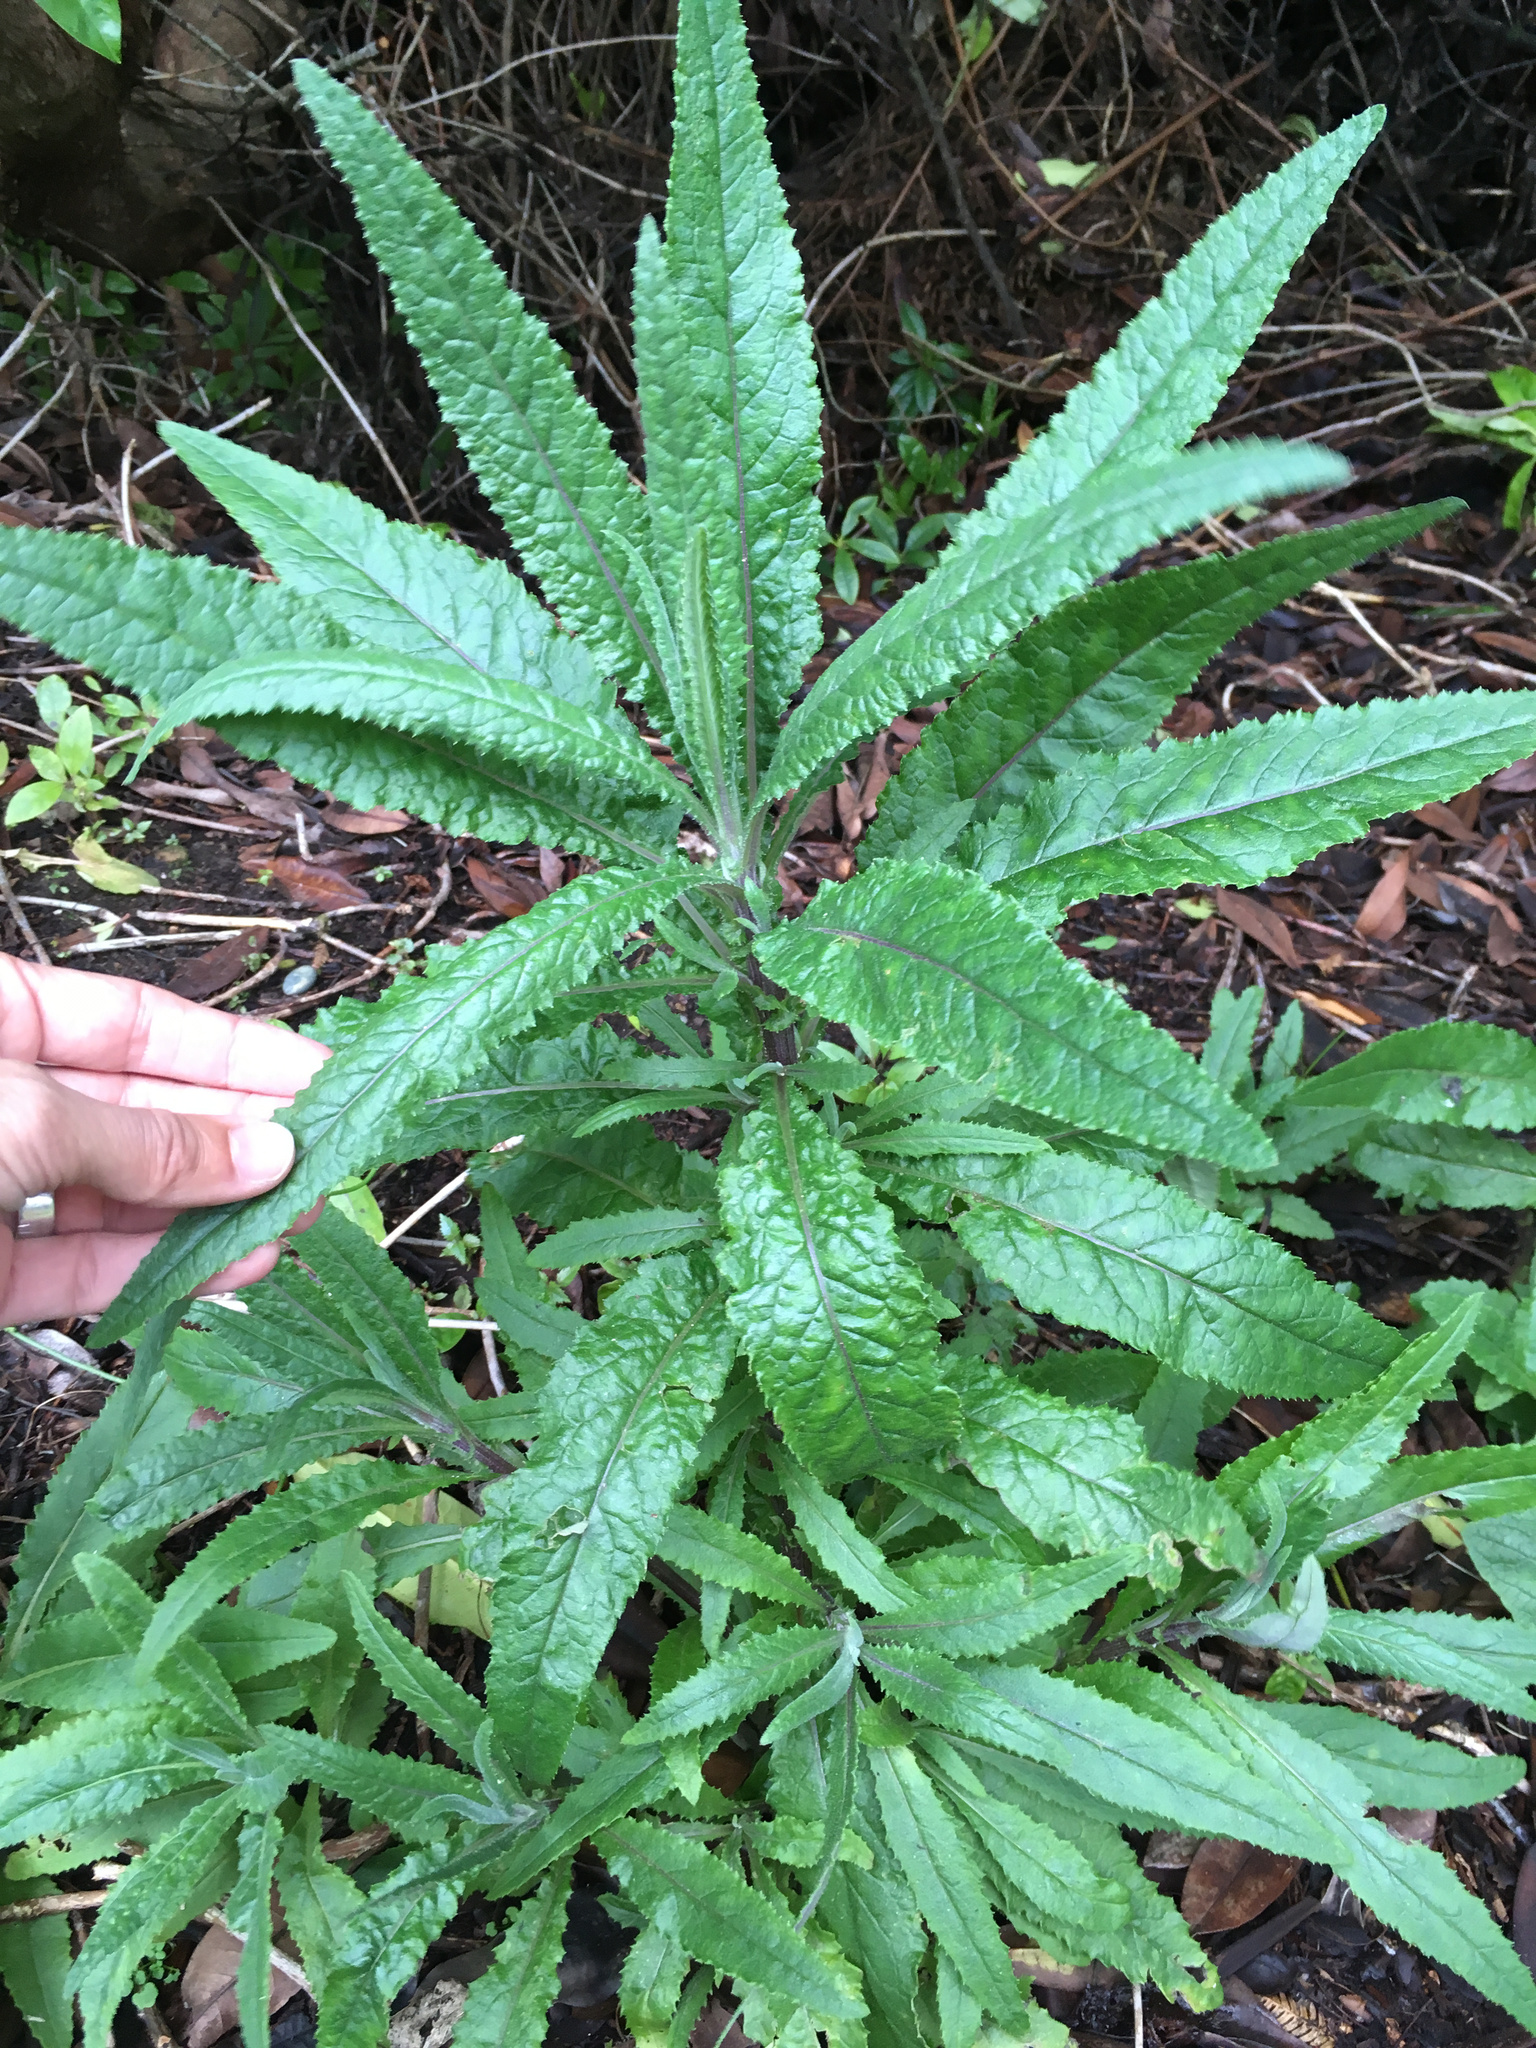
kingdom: Plantae
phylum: Tracheophyta
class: Magnoliopsida
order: Asterales
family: Asteraceae
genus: Senecio
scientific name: Senecio minimus
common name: Toothed fireweed
